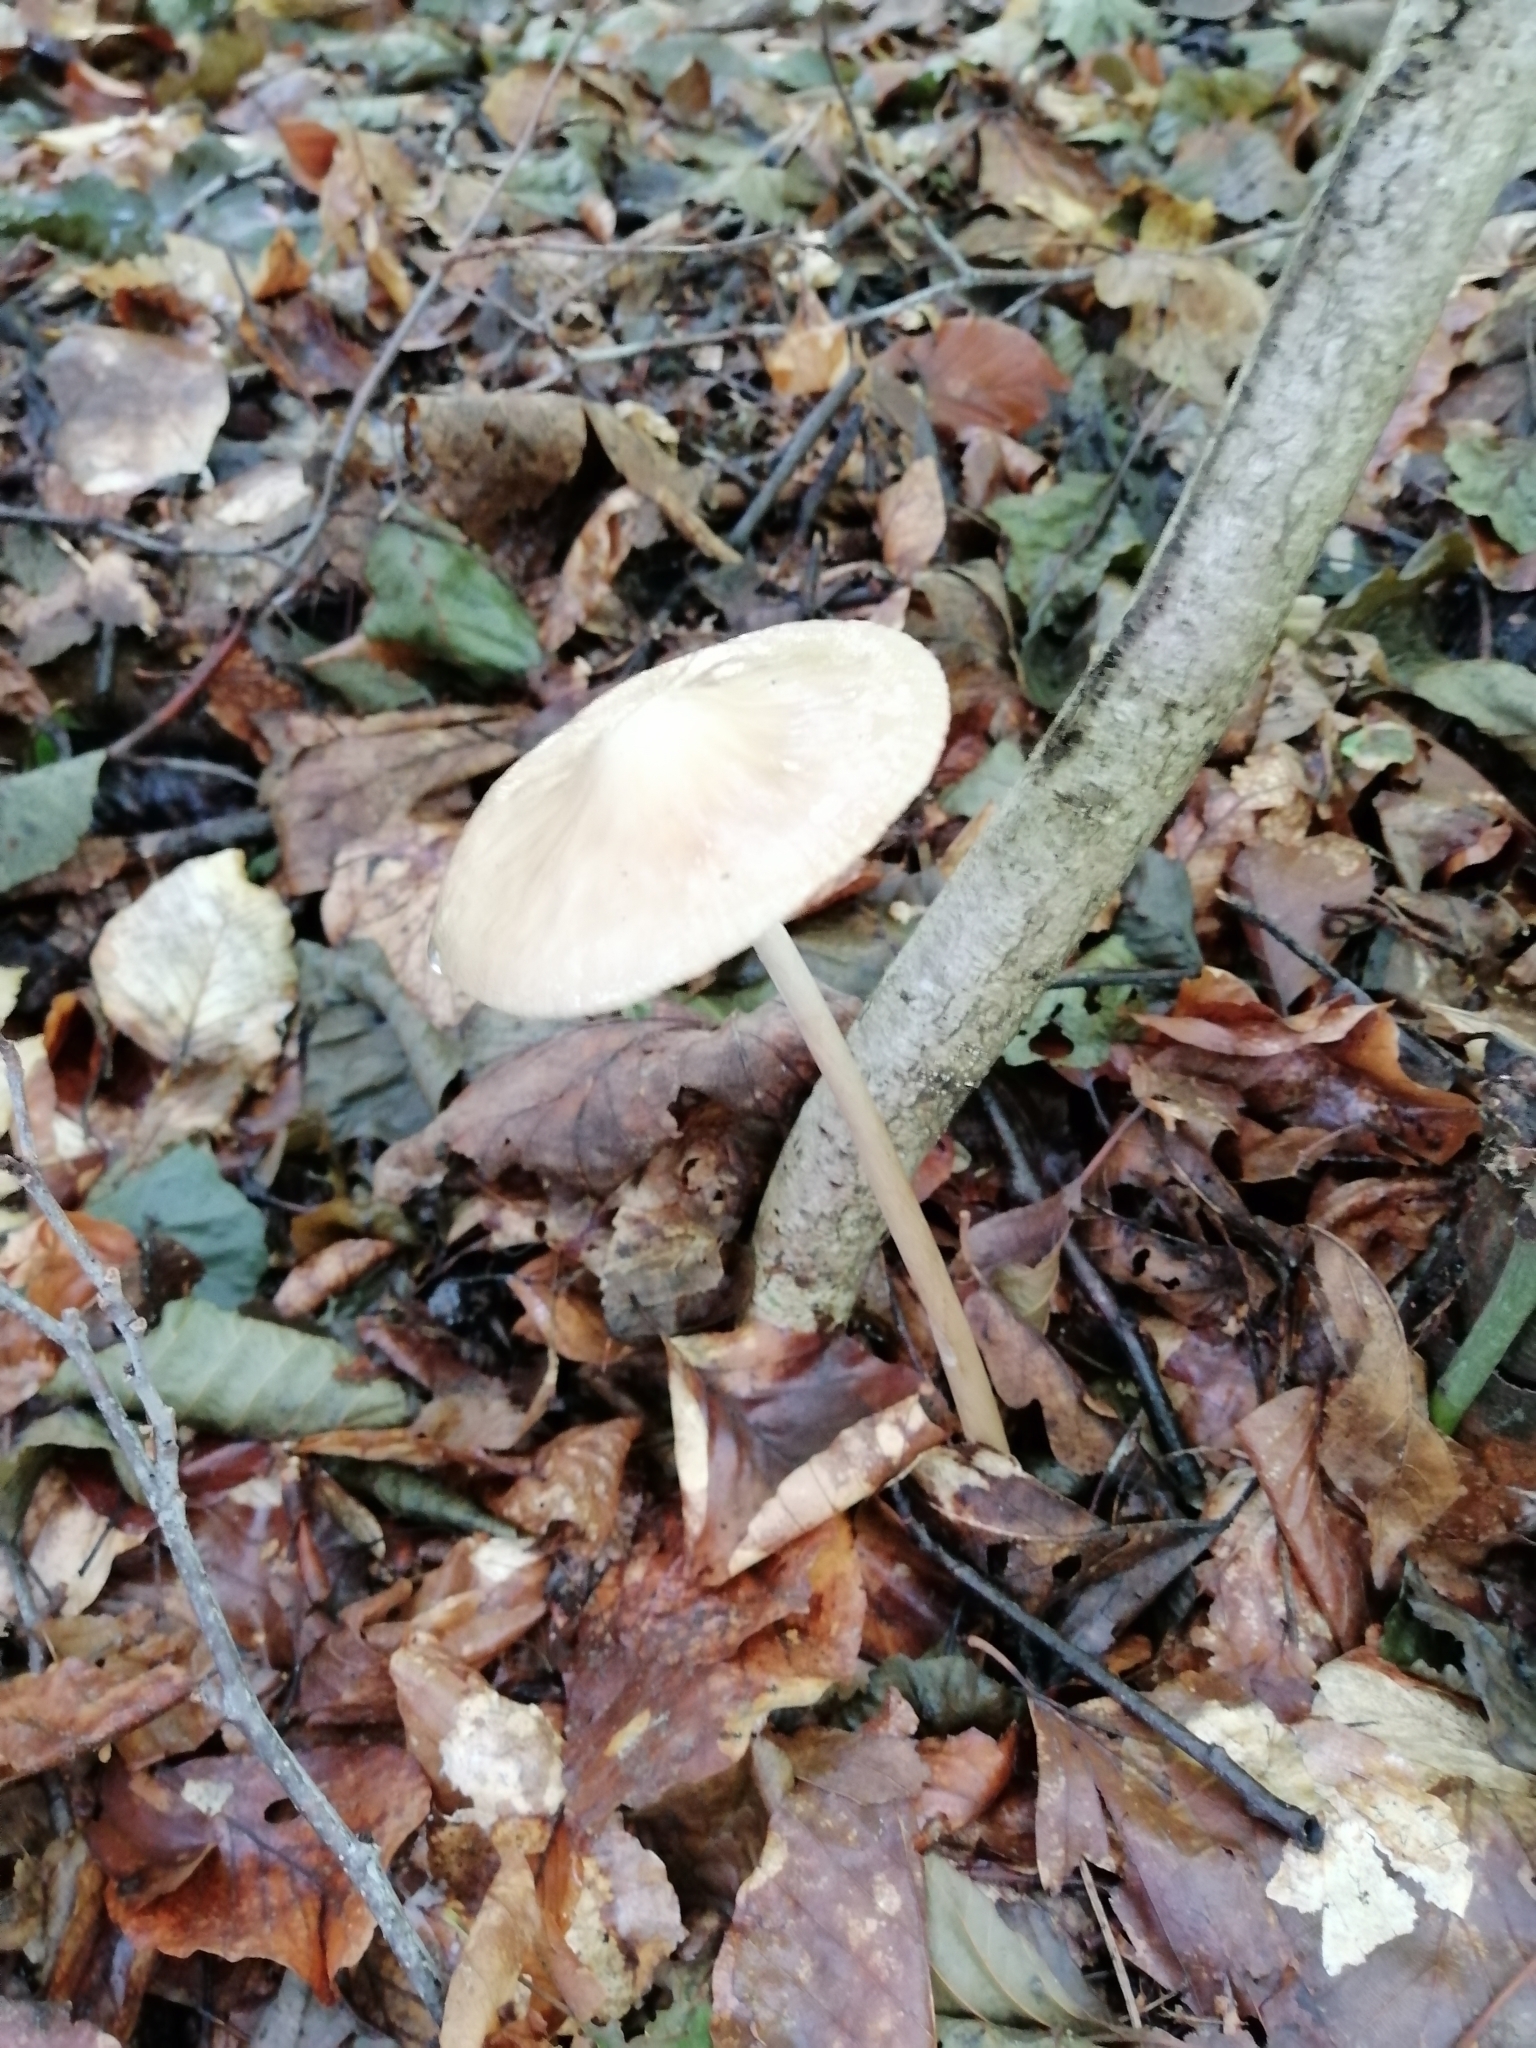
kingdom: Fungi
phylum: Basidiomycota
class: Agaricomycetes
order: Agaricales
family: Physalacriaceae
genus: Hymenopellis
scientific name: Hymenopellis radicata
